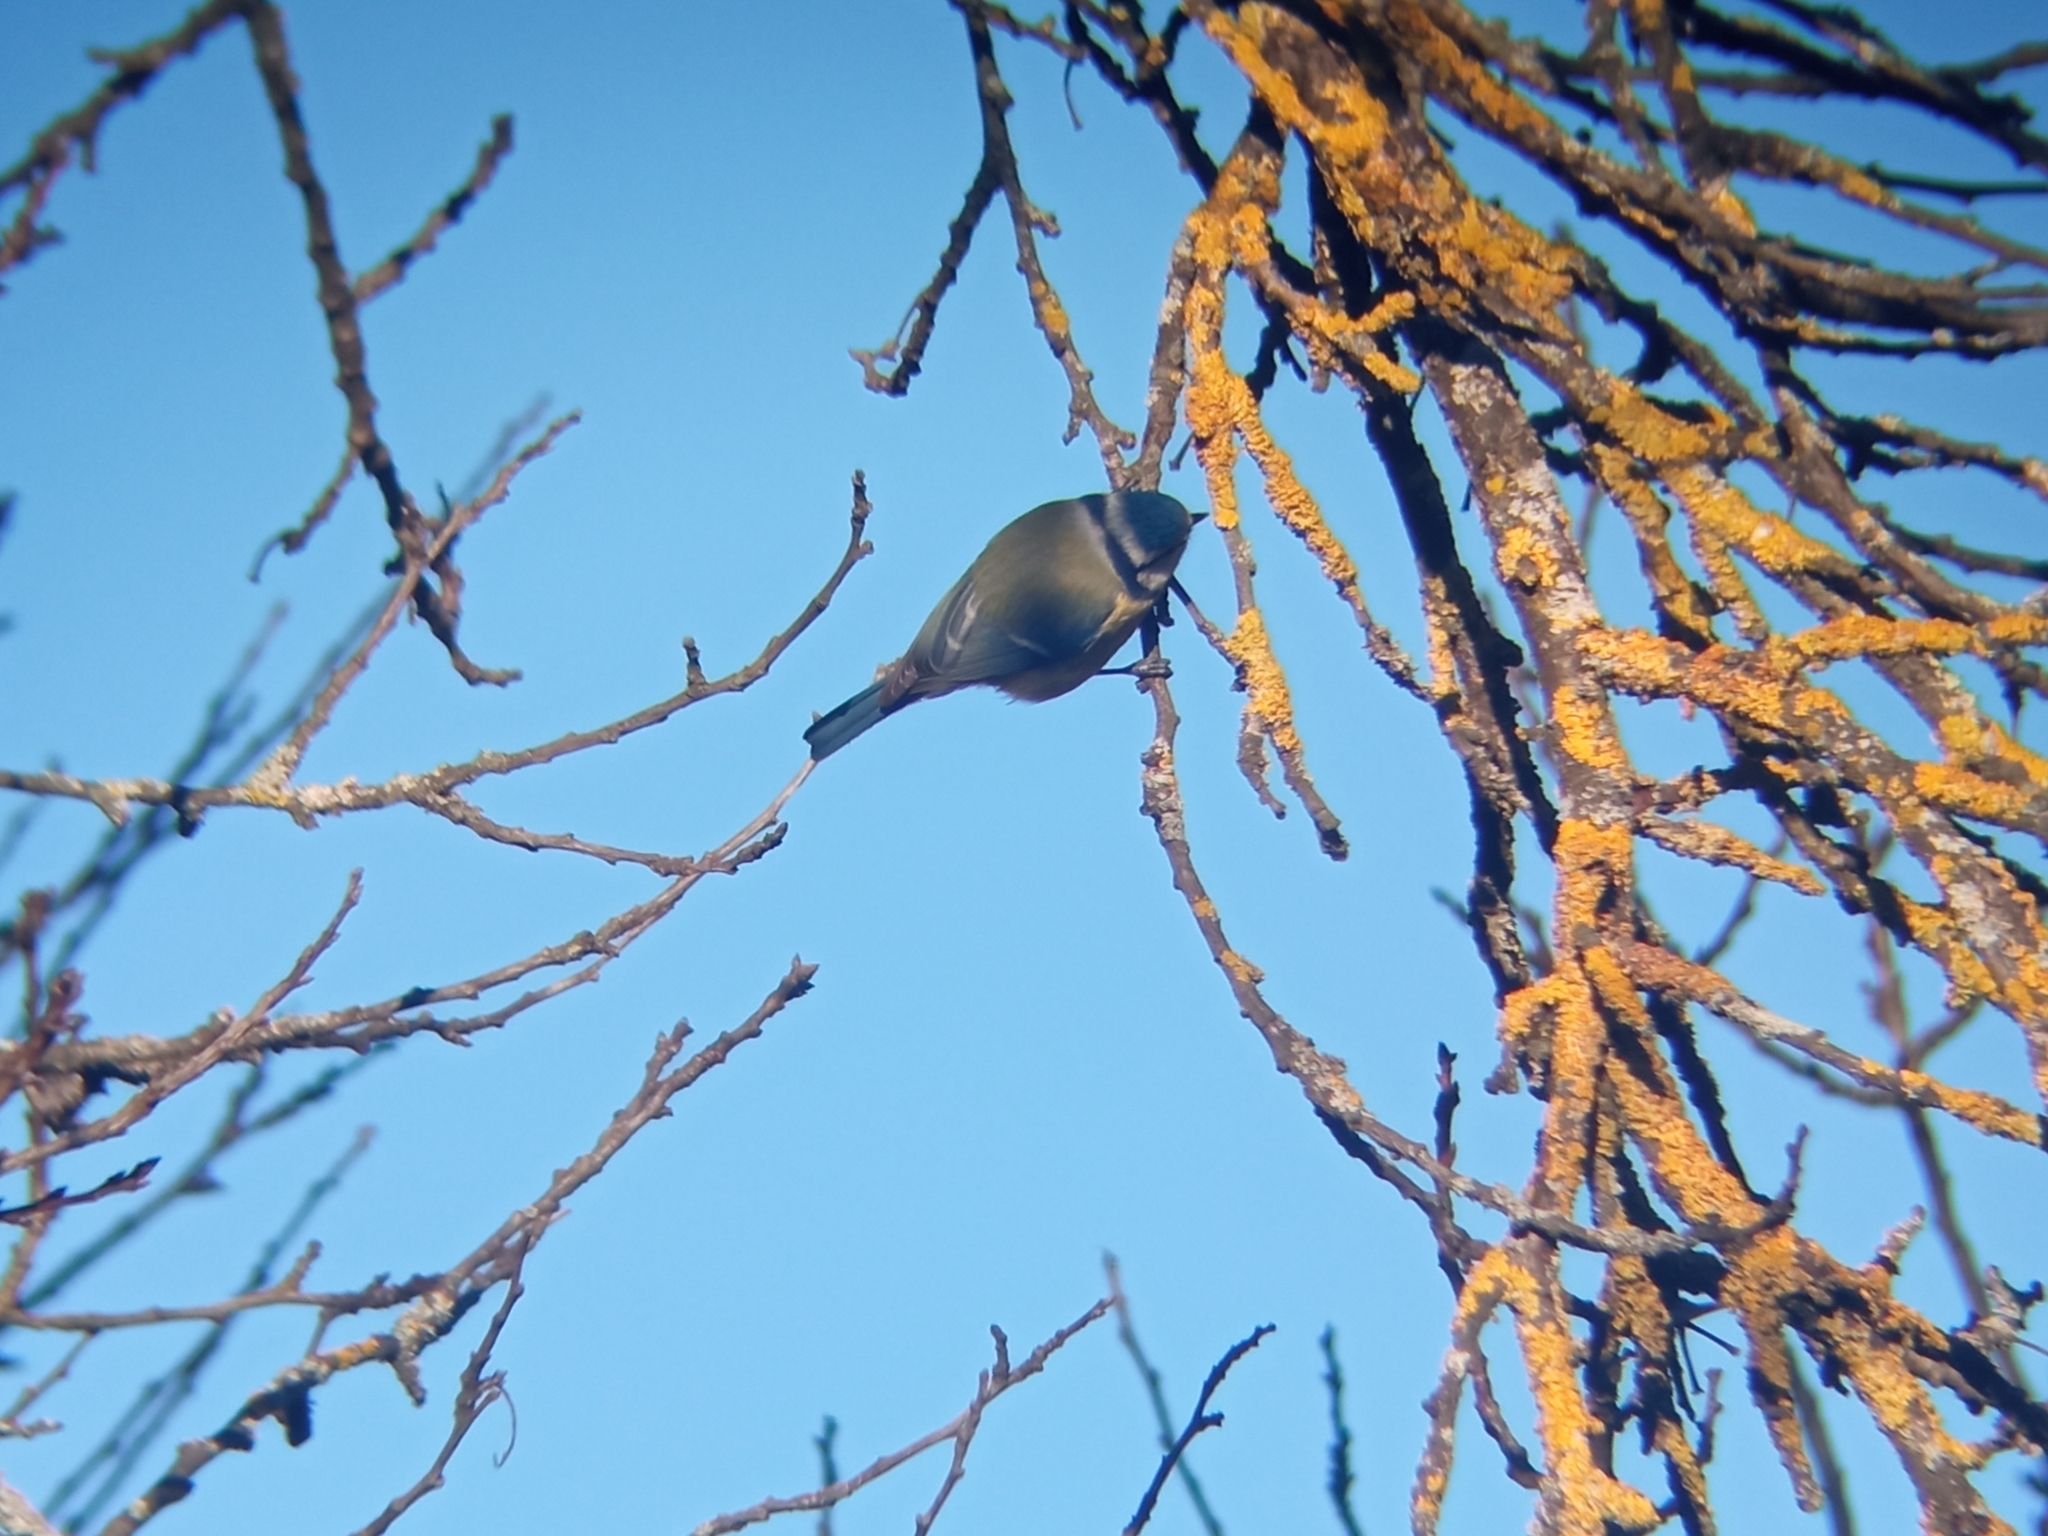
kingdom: Animalia
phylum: Chordata
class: Aves
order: Passeriformes
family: Paridae
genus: Cyanistes
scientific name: Cyanistes caeruleus
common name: Eurasian blue tit
